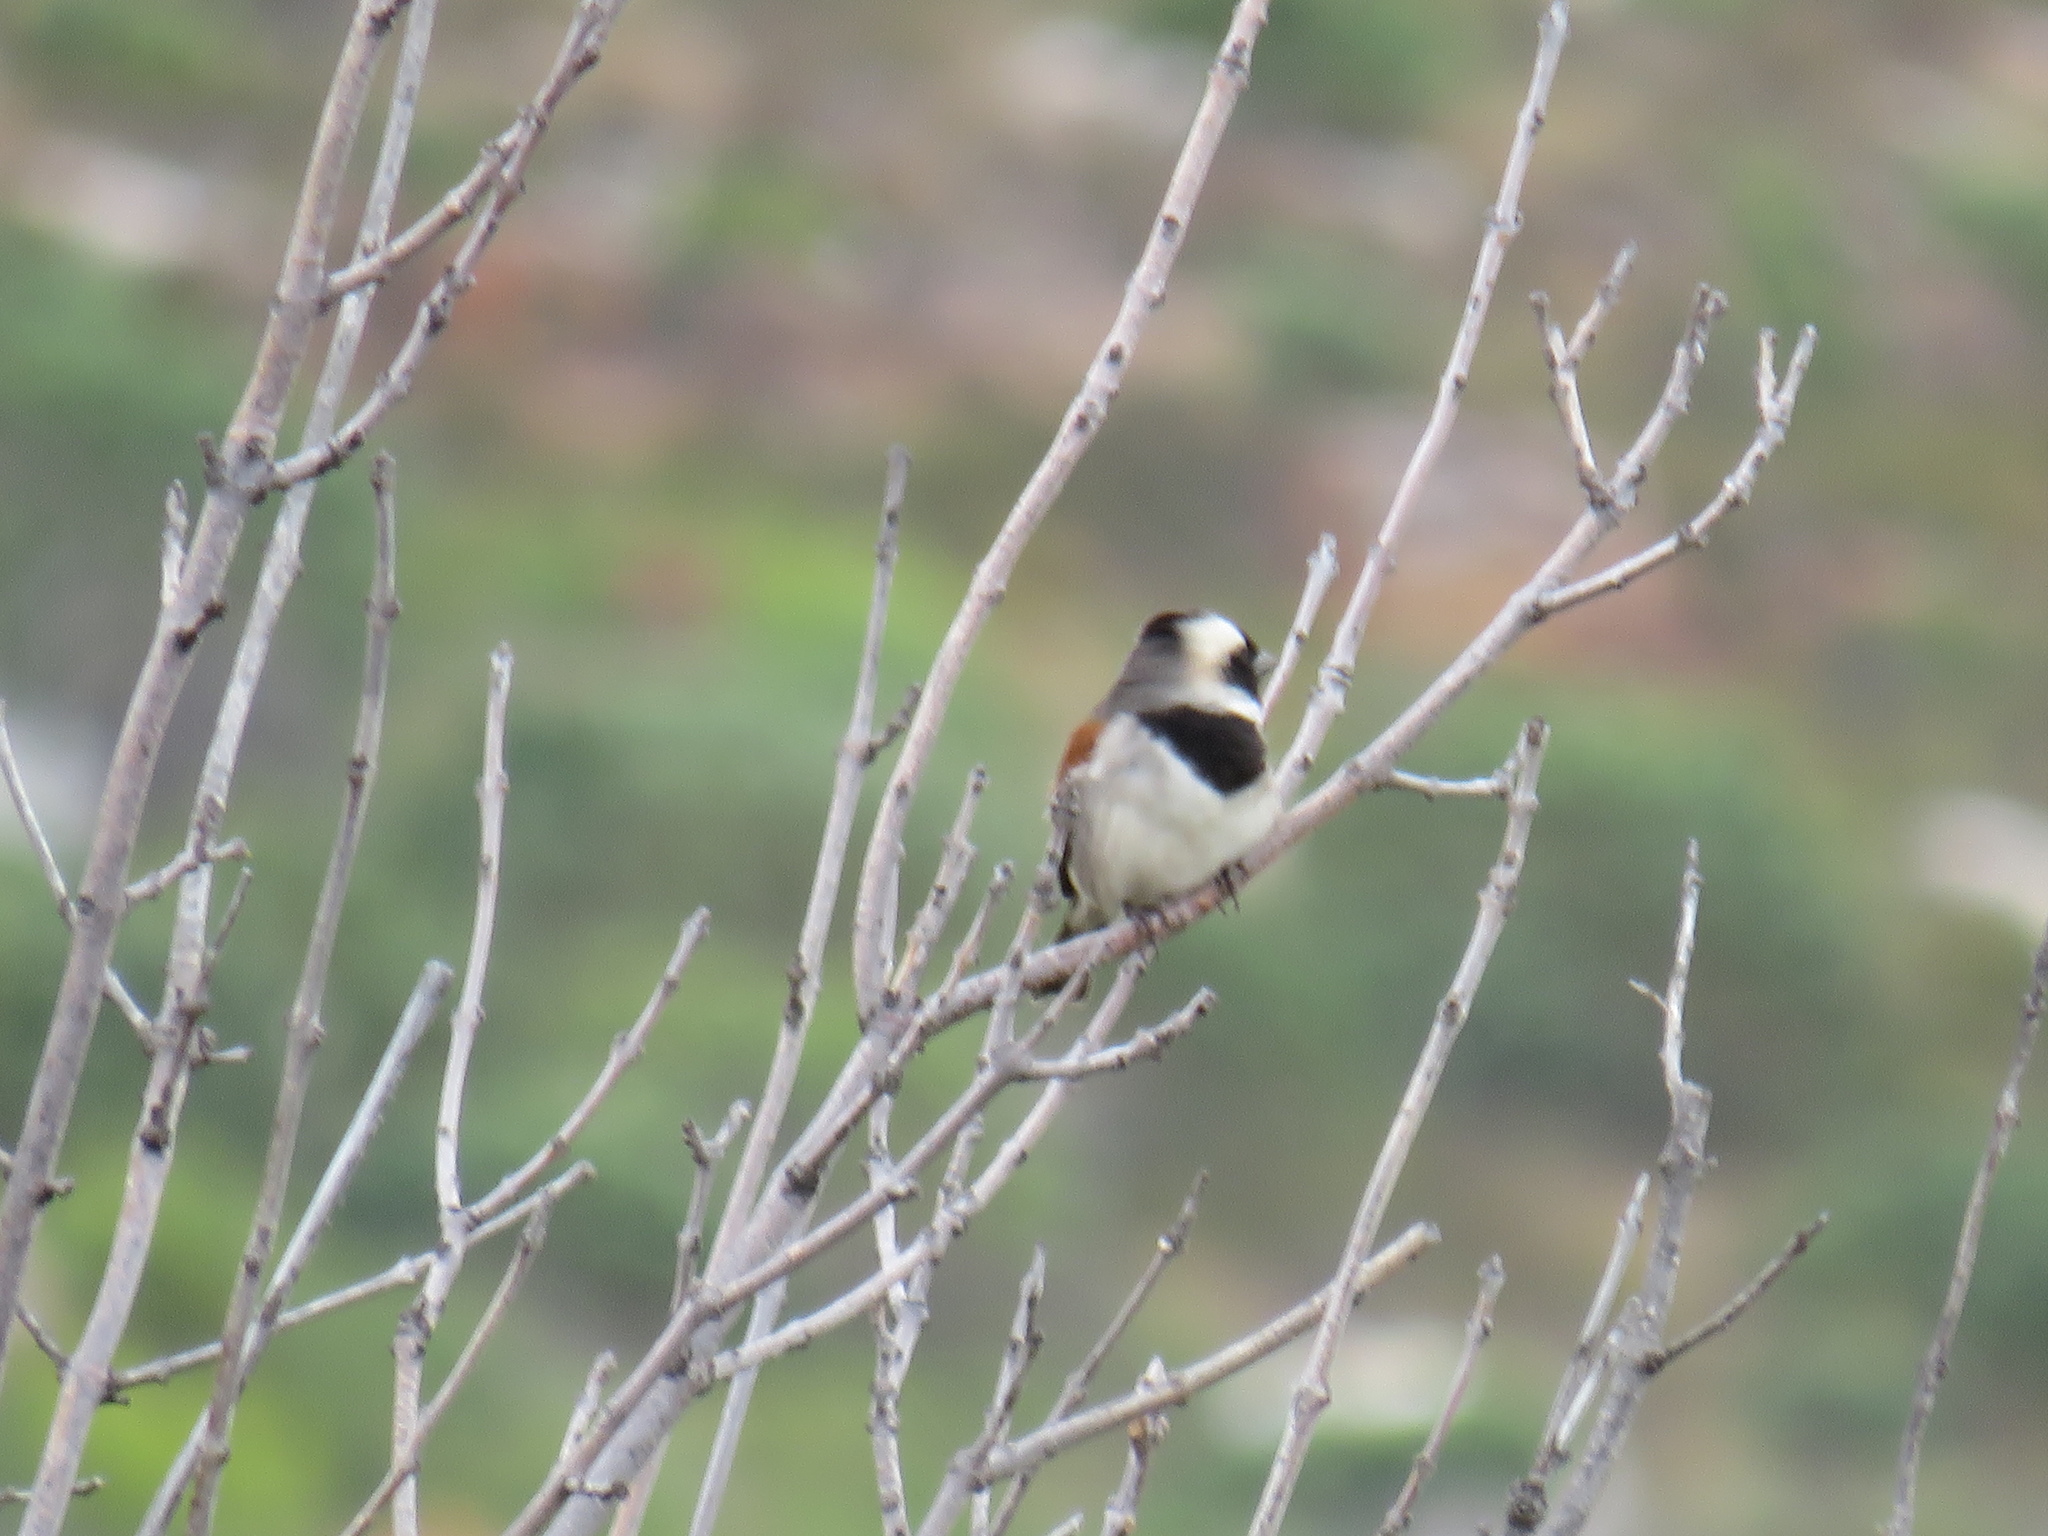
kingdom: Animalia
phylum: Chordata
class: Aves
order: Passeriformes
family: Passeridae
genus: Passer
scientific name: Passer melanurus
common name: Cape sparrow
